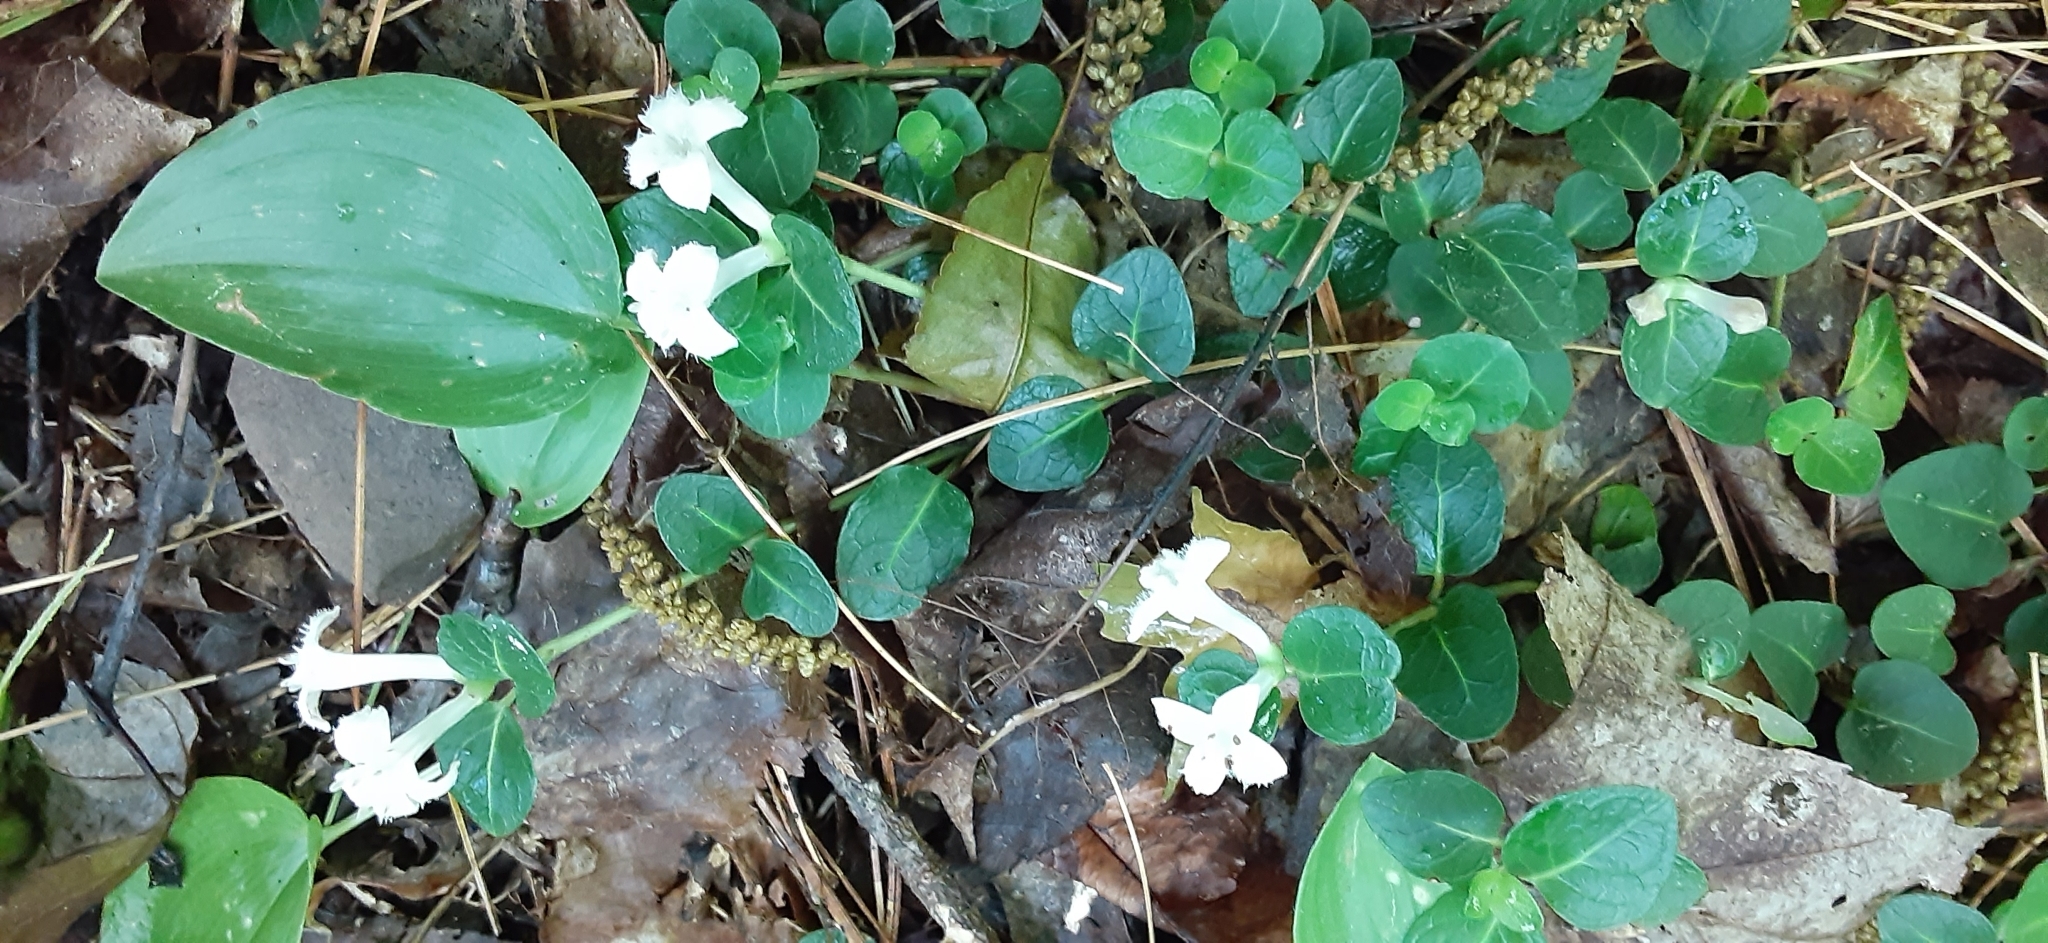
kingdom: Plantae
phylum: Tracheophyta
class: Magnoliopsida
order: Gentianales
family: Rubiaceae
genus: Mitchella
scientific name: Mitchella repens
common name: Partridge-berry
